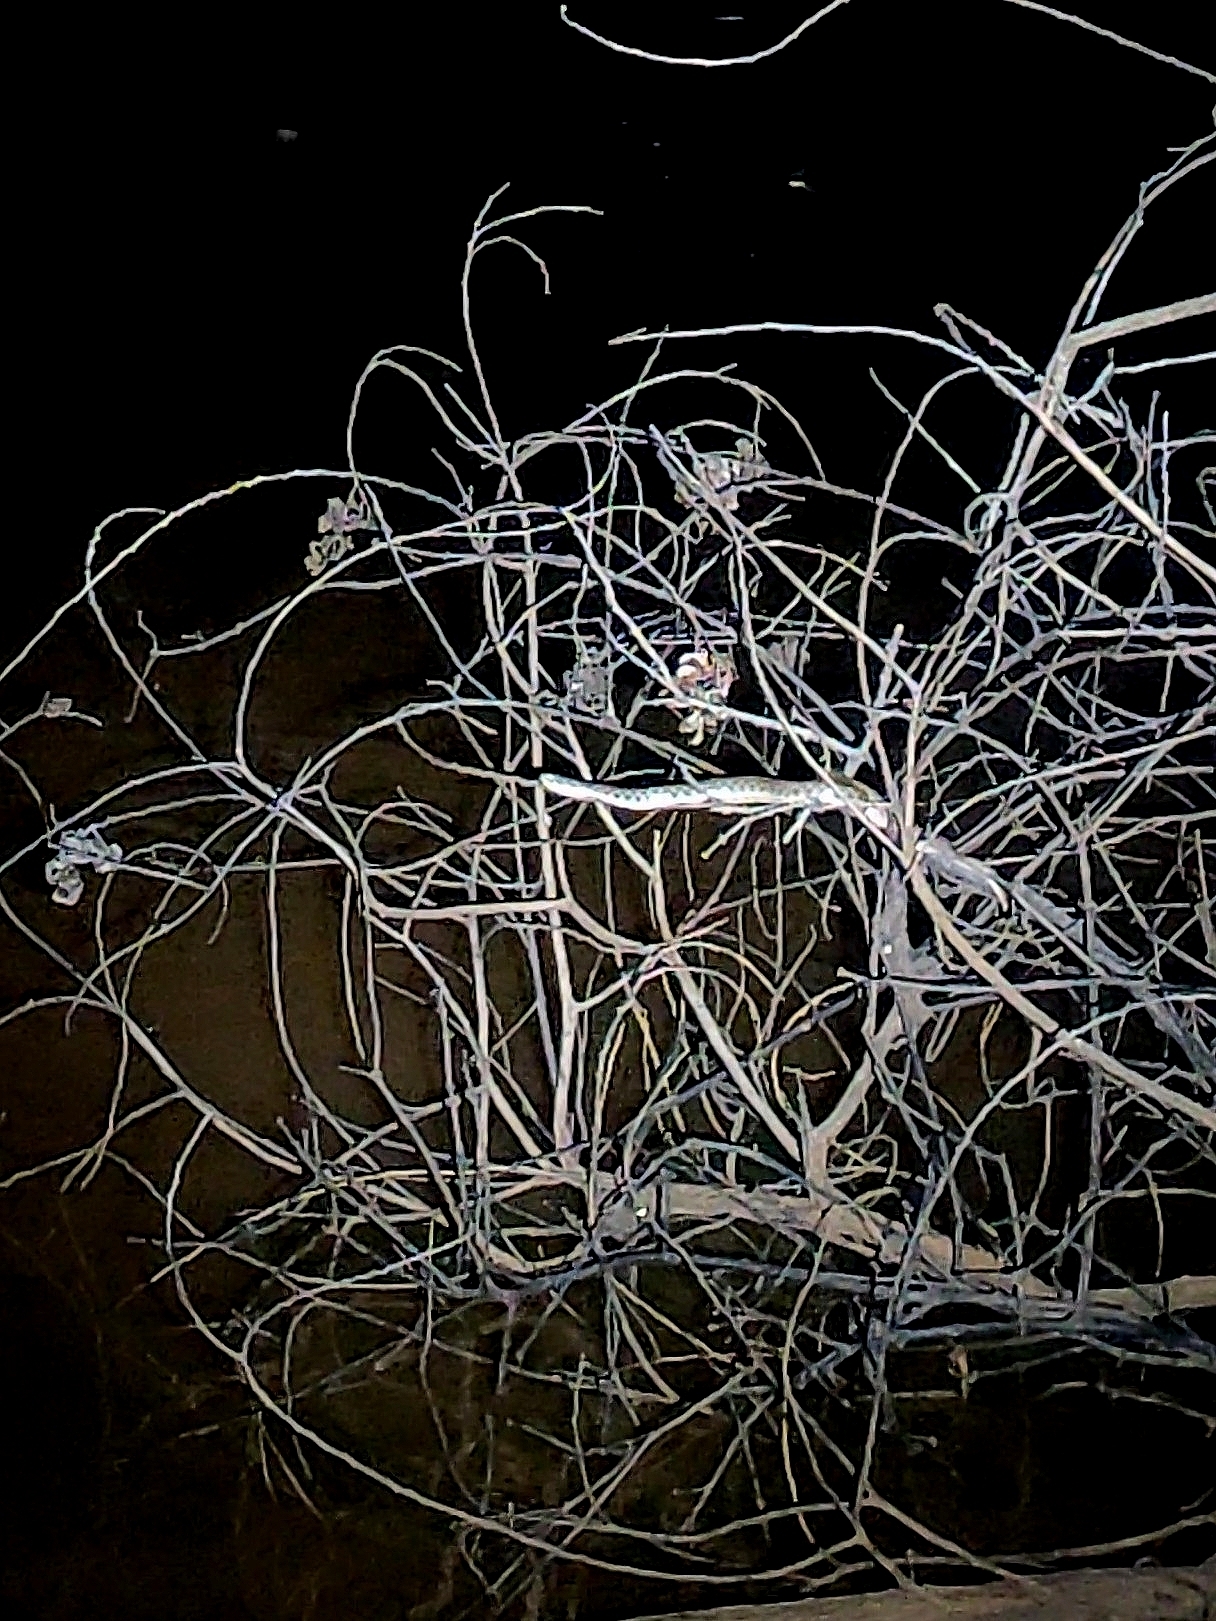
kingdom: Animalia
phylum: Chordata
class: Squamata
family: Colubridae
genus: Fowlea
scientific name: Fowlea piscator
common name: Asiatic water snake
